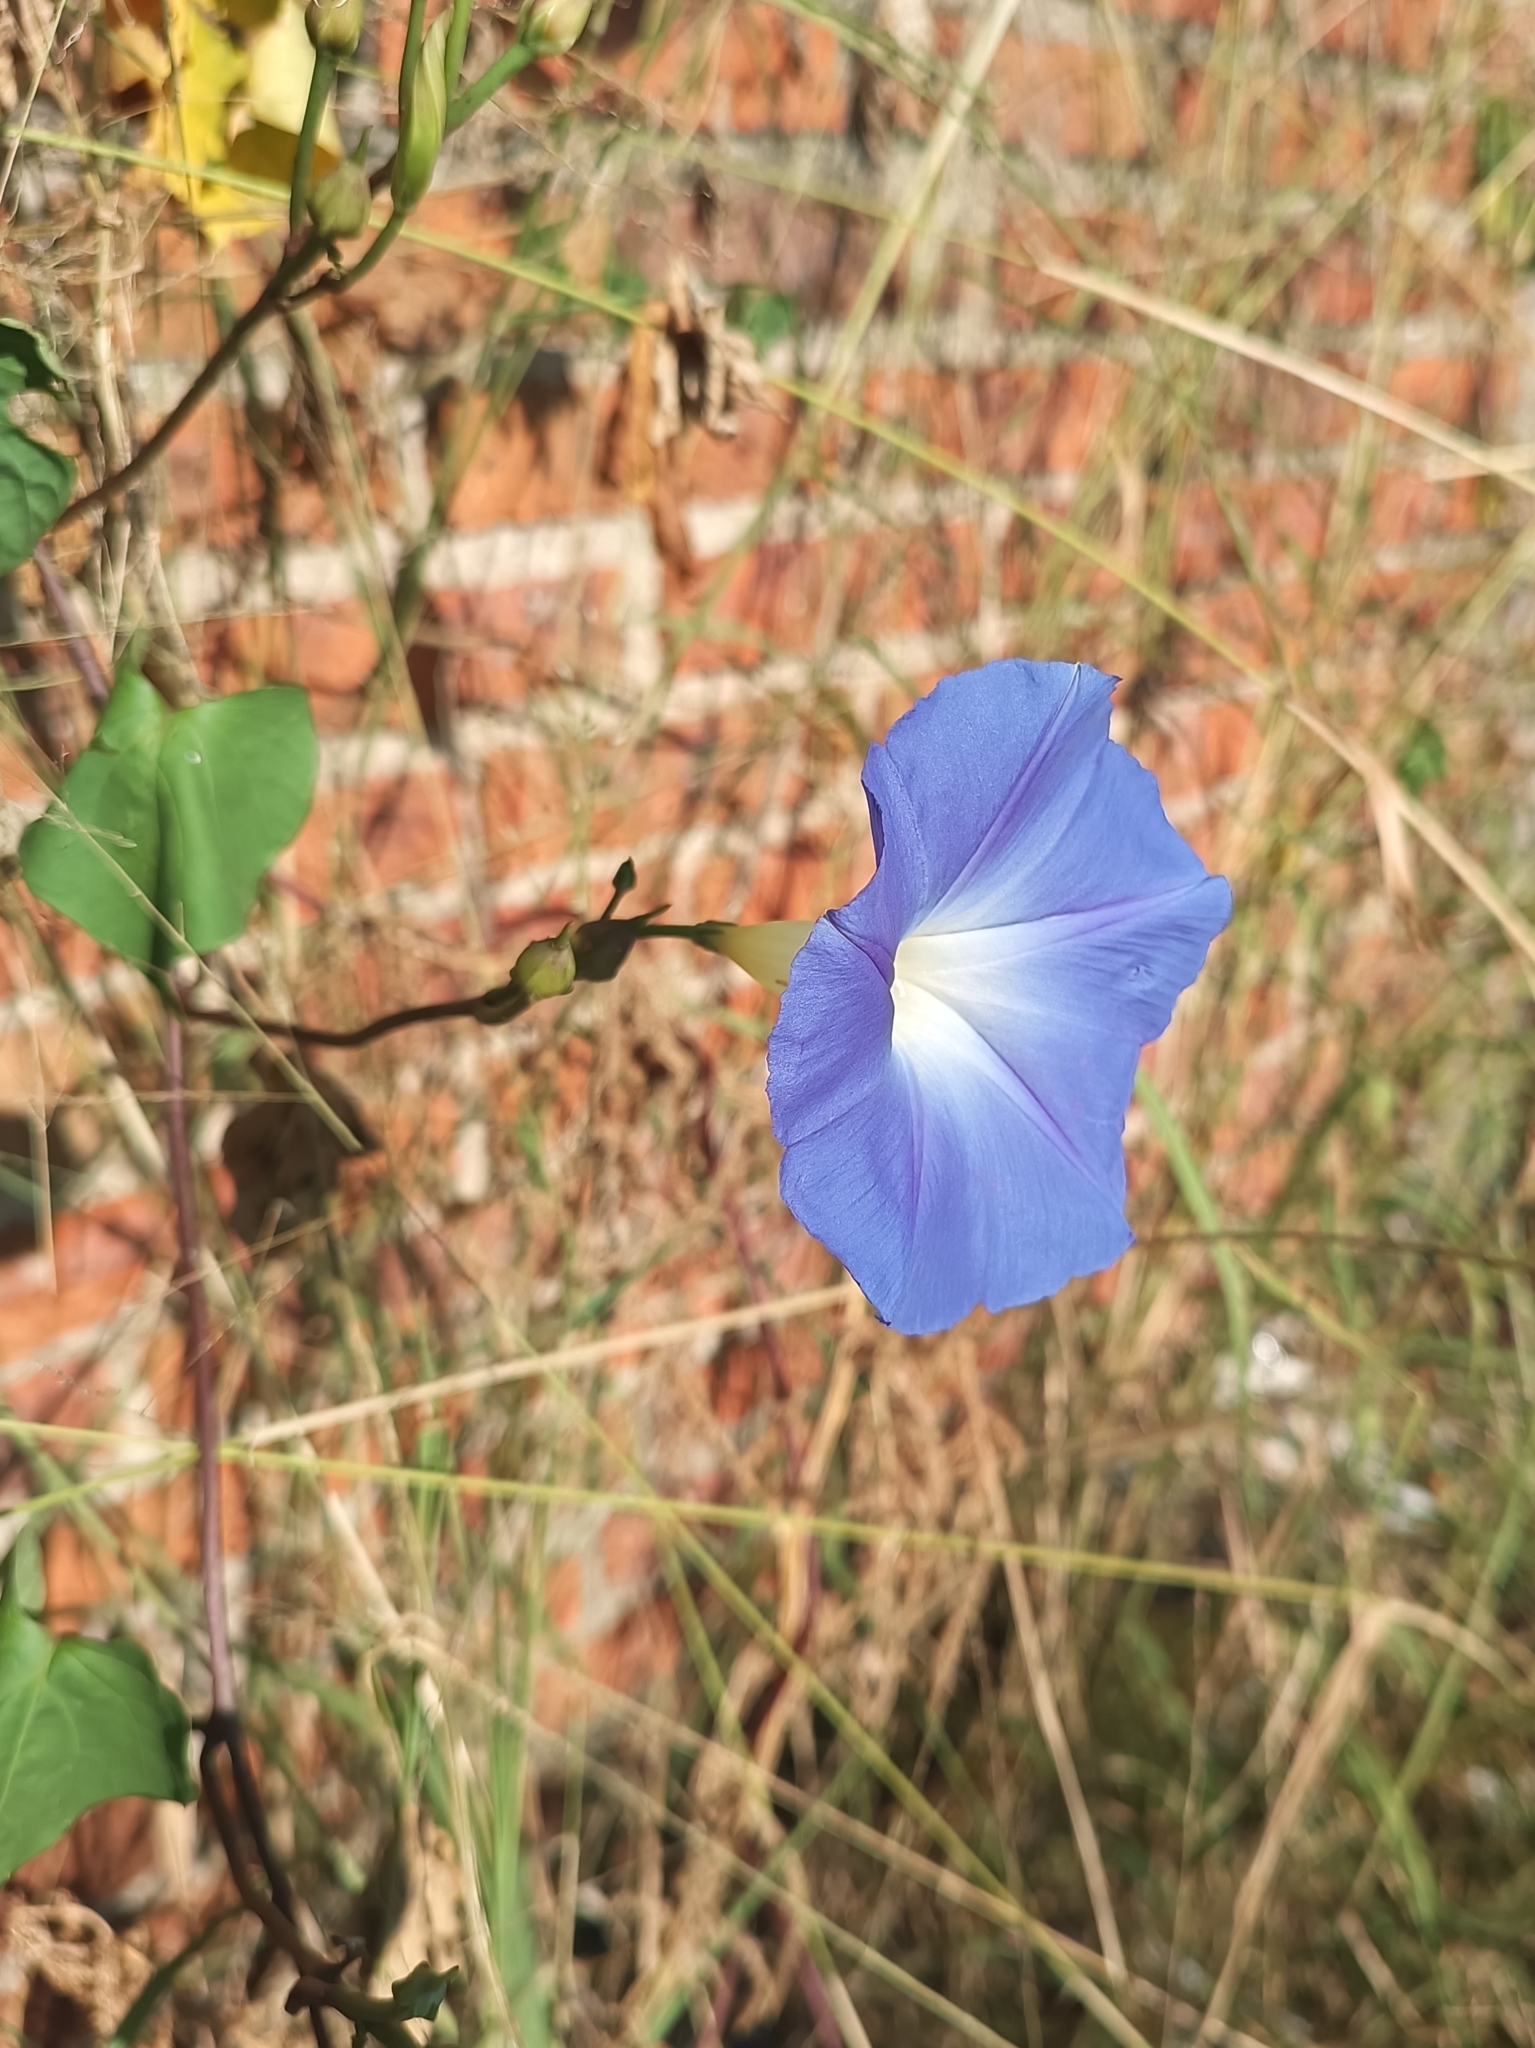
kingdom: Plantae
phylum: Tracheophyta
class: Magnoliopsida
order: Solanales
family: Convolvulaceae
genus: Ipomoea
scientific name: Ipomoea tricolor
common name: Morning-glory
